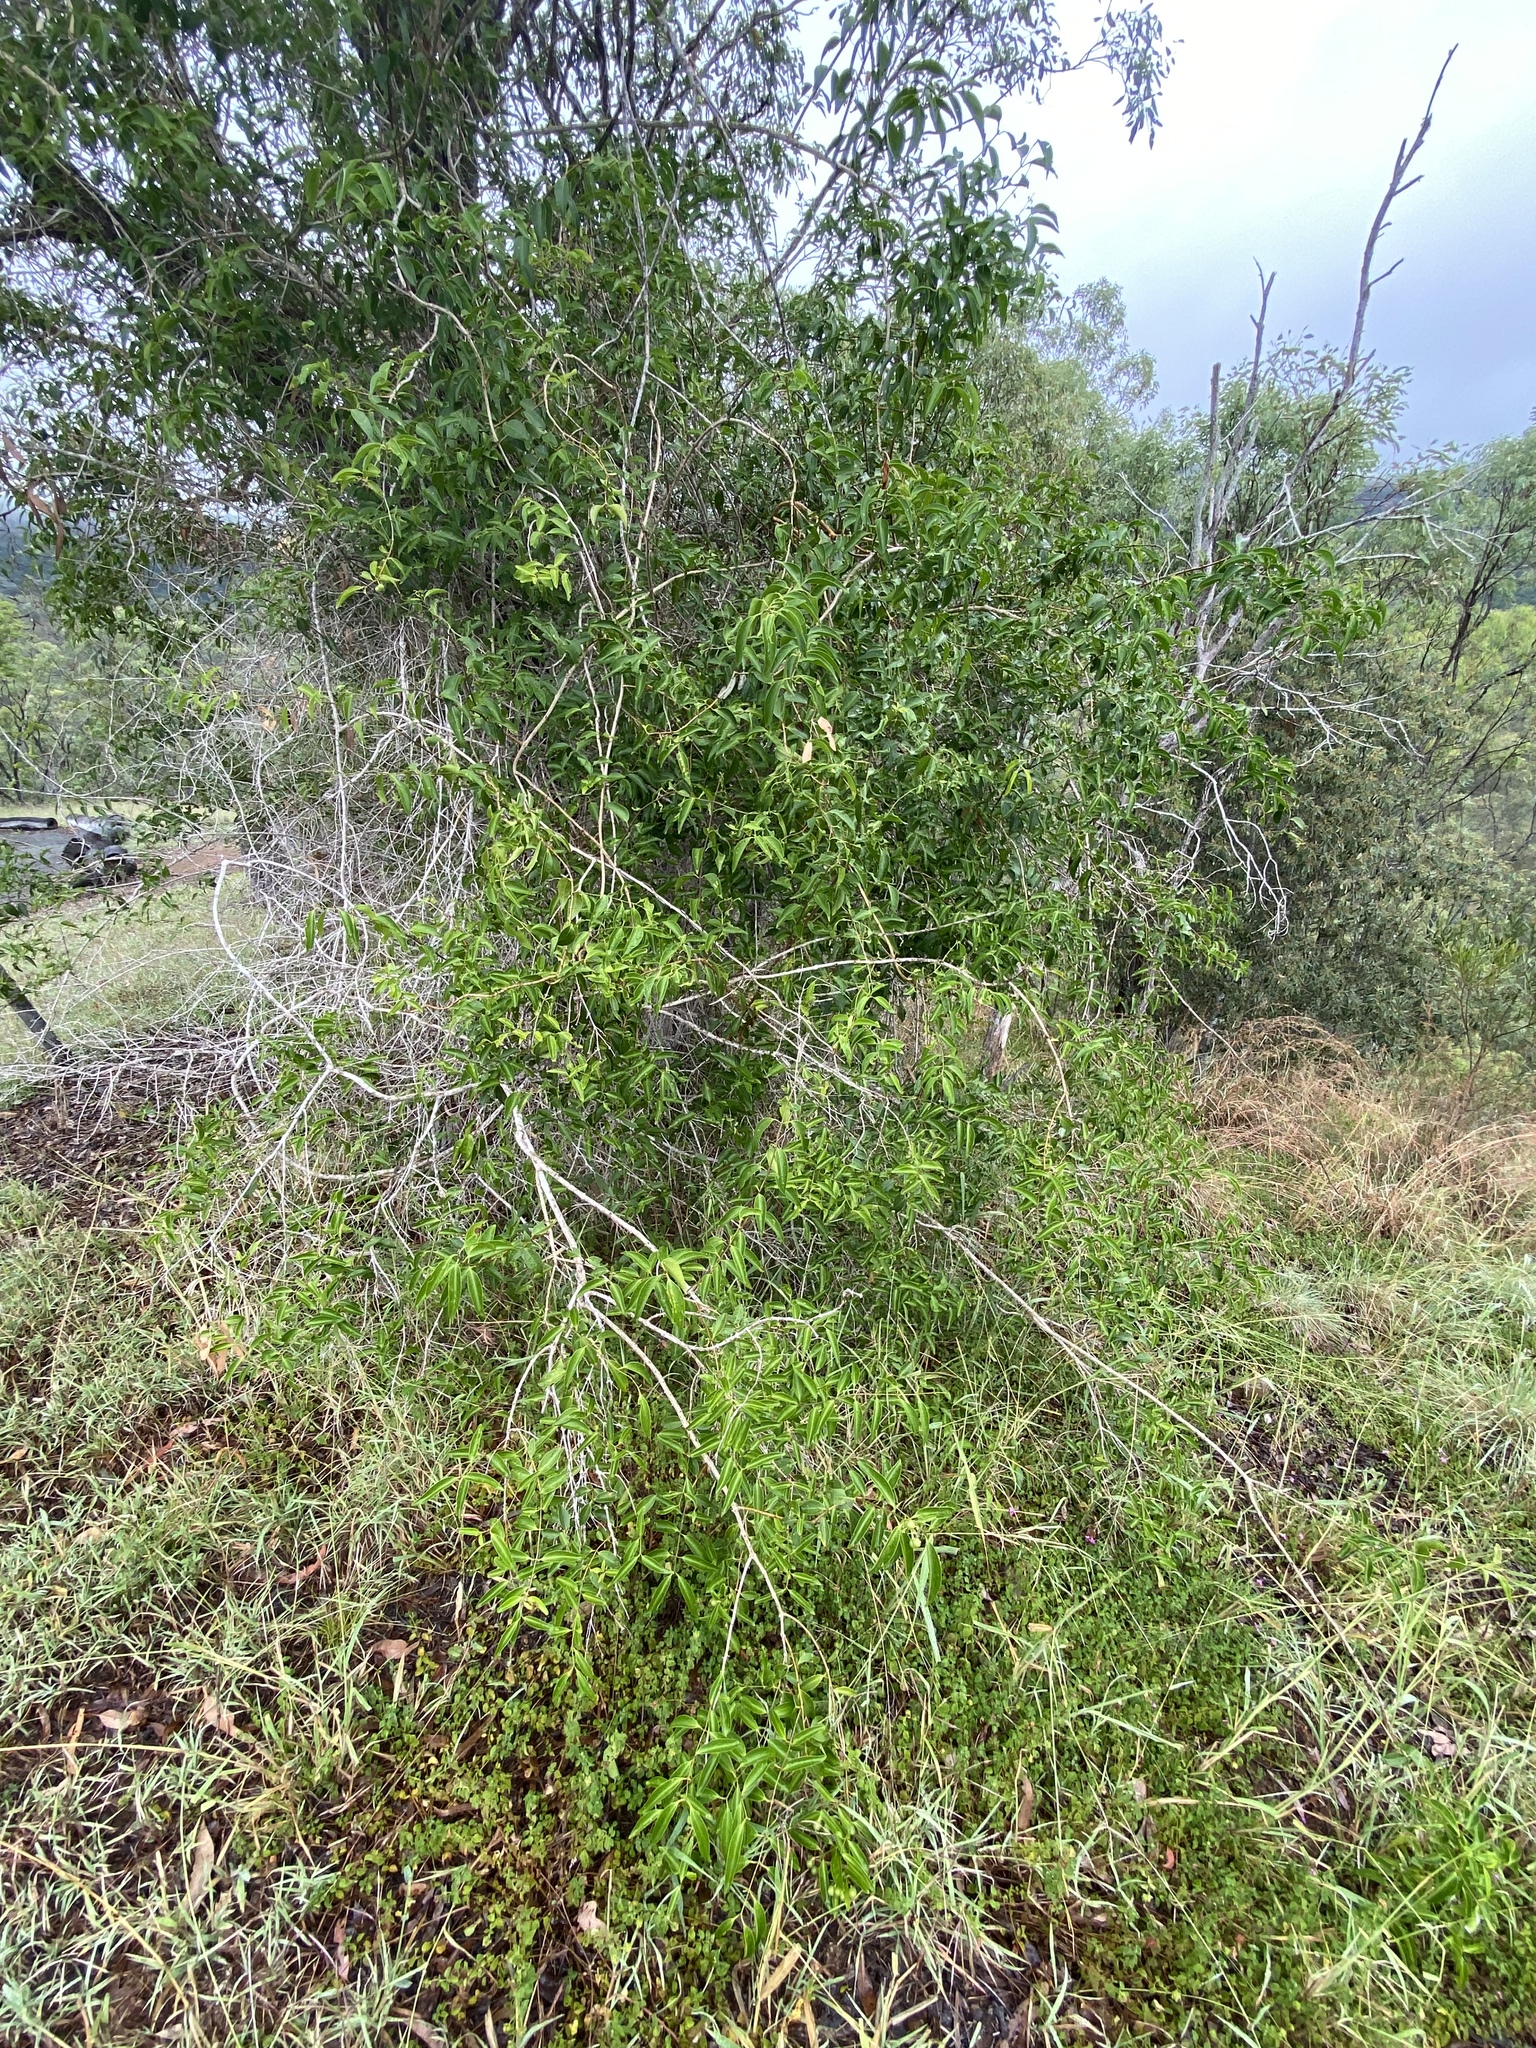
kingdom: Plantae
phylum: Tracheophyta
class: Magnoliopsida
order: Lamiales
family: Oleaceae
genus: Jasminum
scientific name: Jasminum simplicifolium
